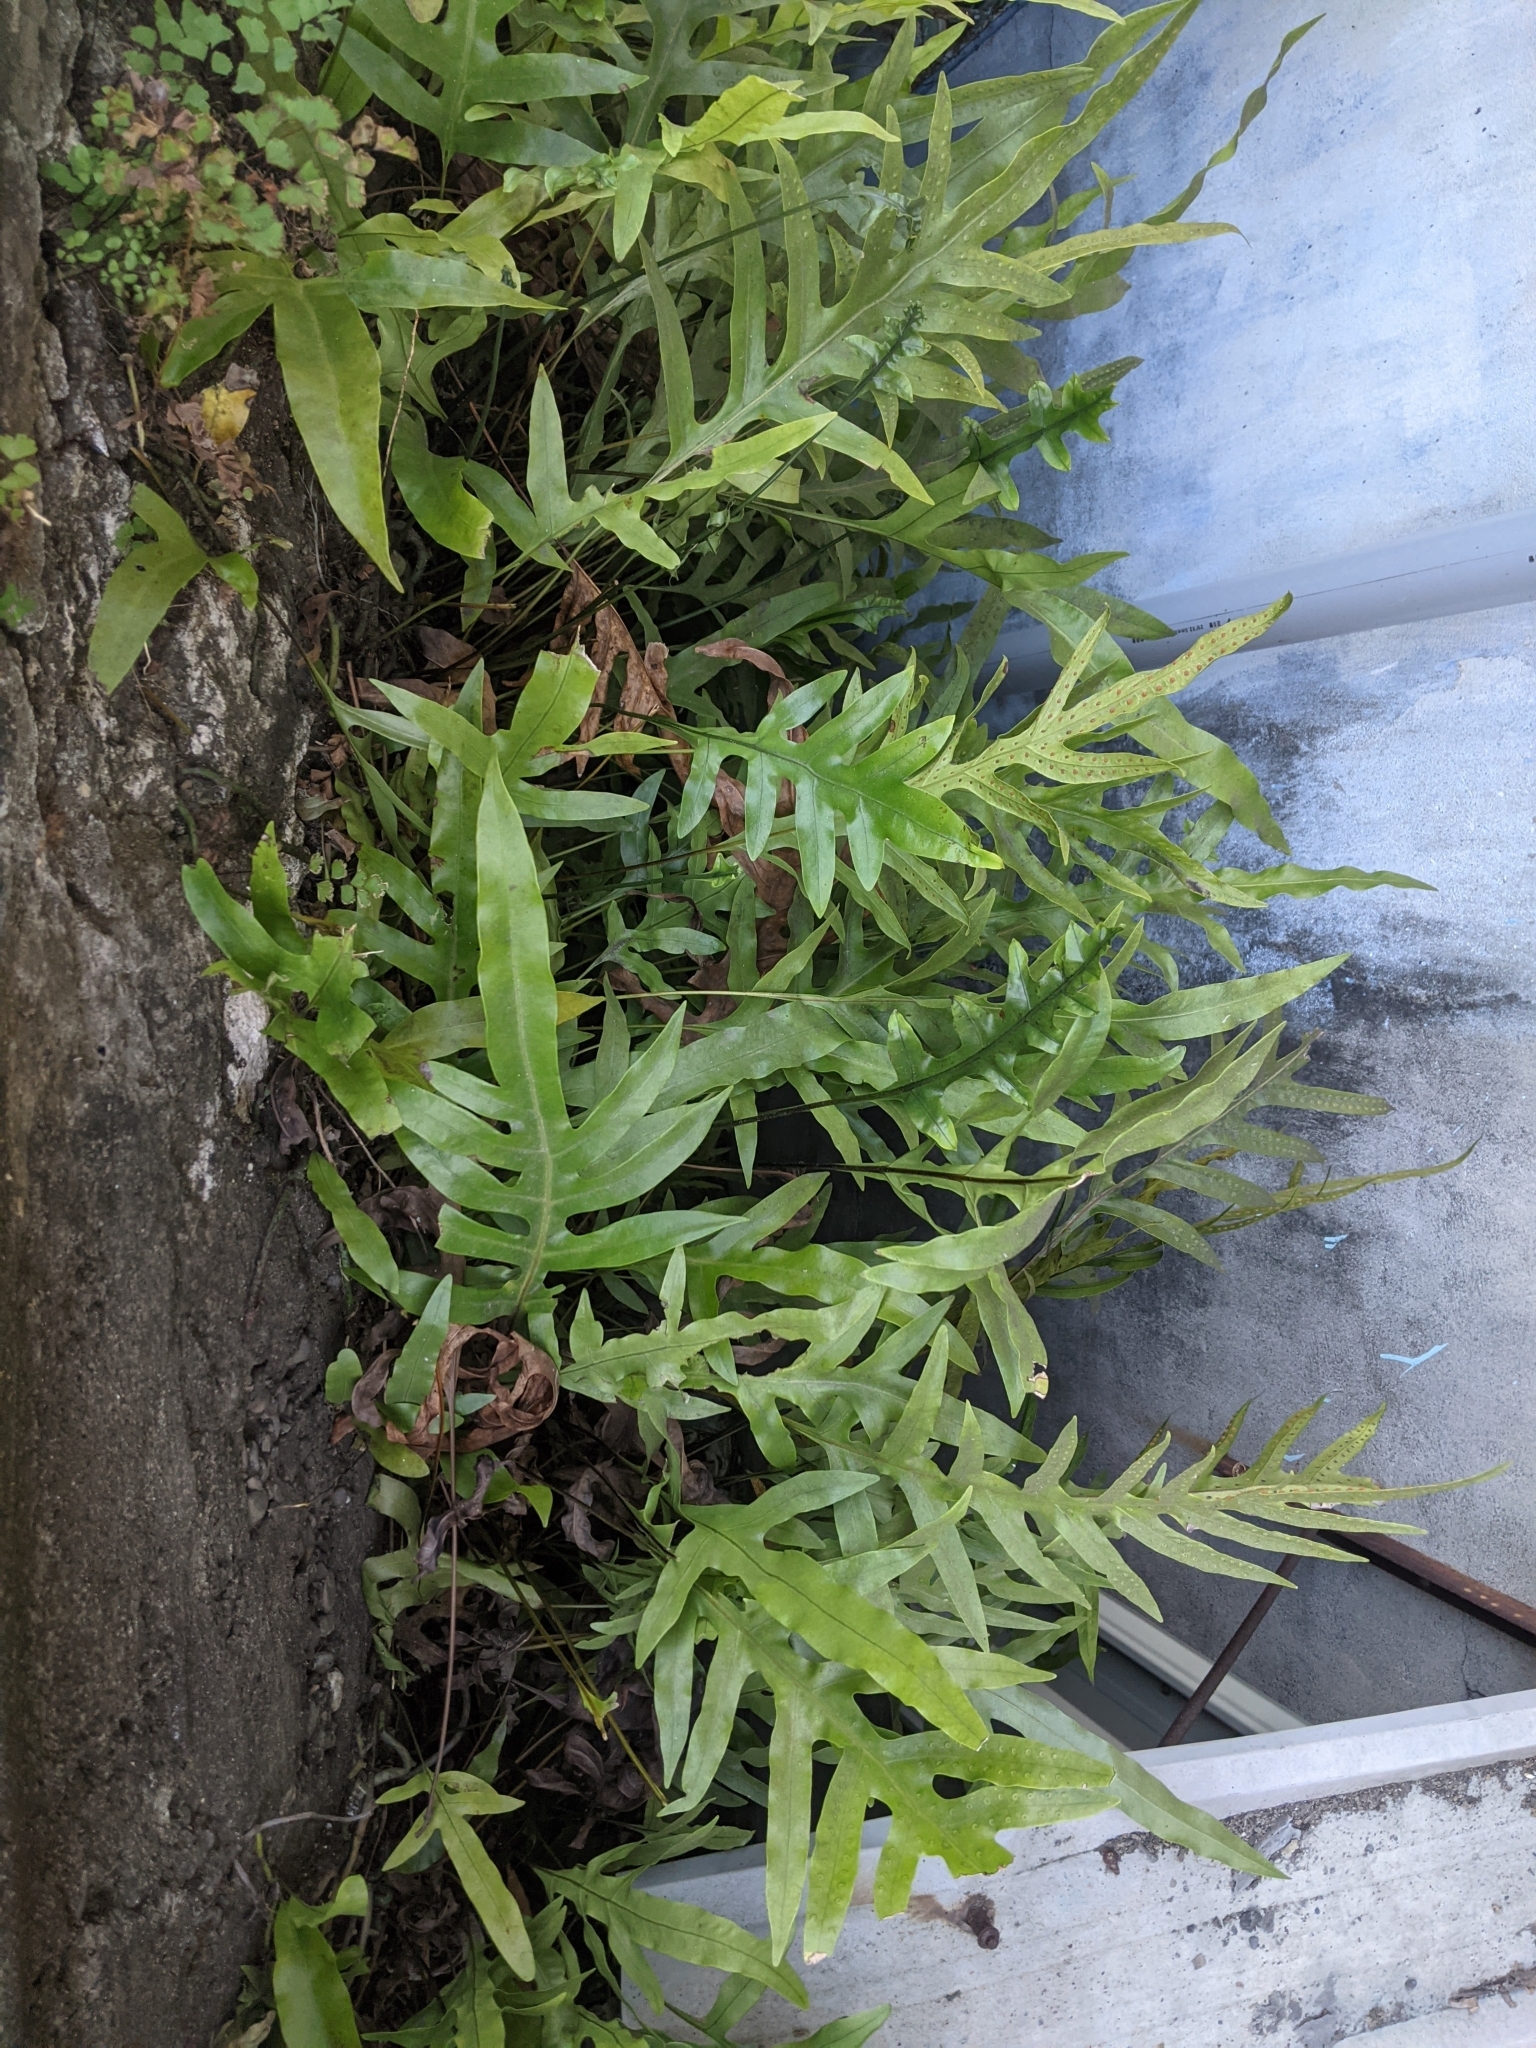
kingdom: Plantae
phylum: Tracheophyta
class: Polypodiopsida
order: Polypodiales
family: Polypodiaceae
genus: Microsorum
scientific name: Microsorum scolopendria
